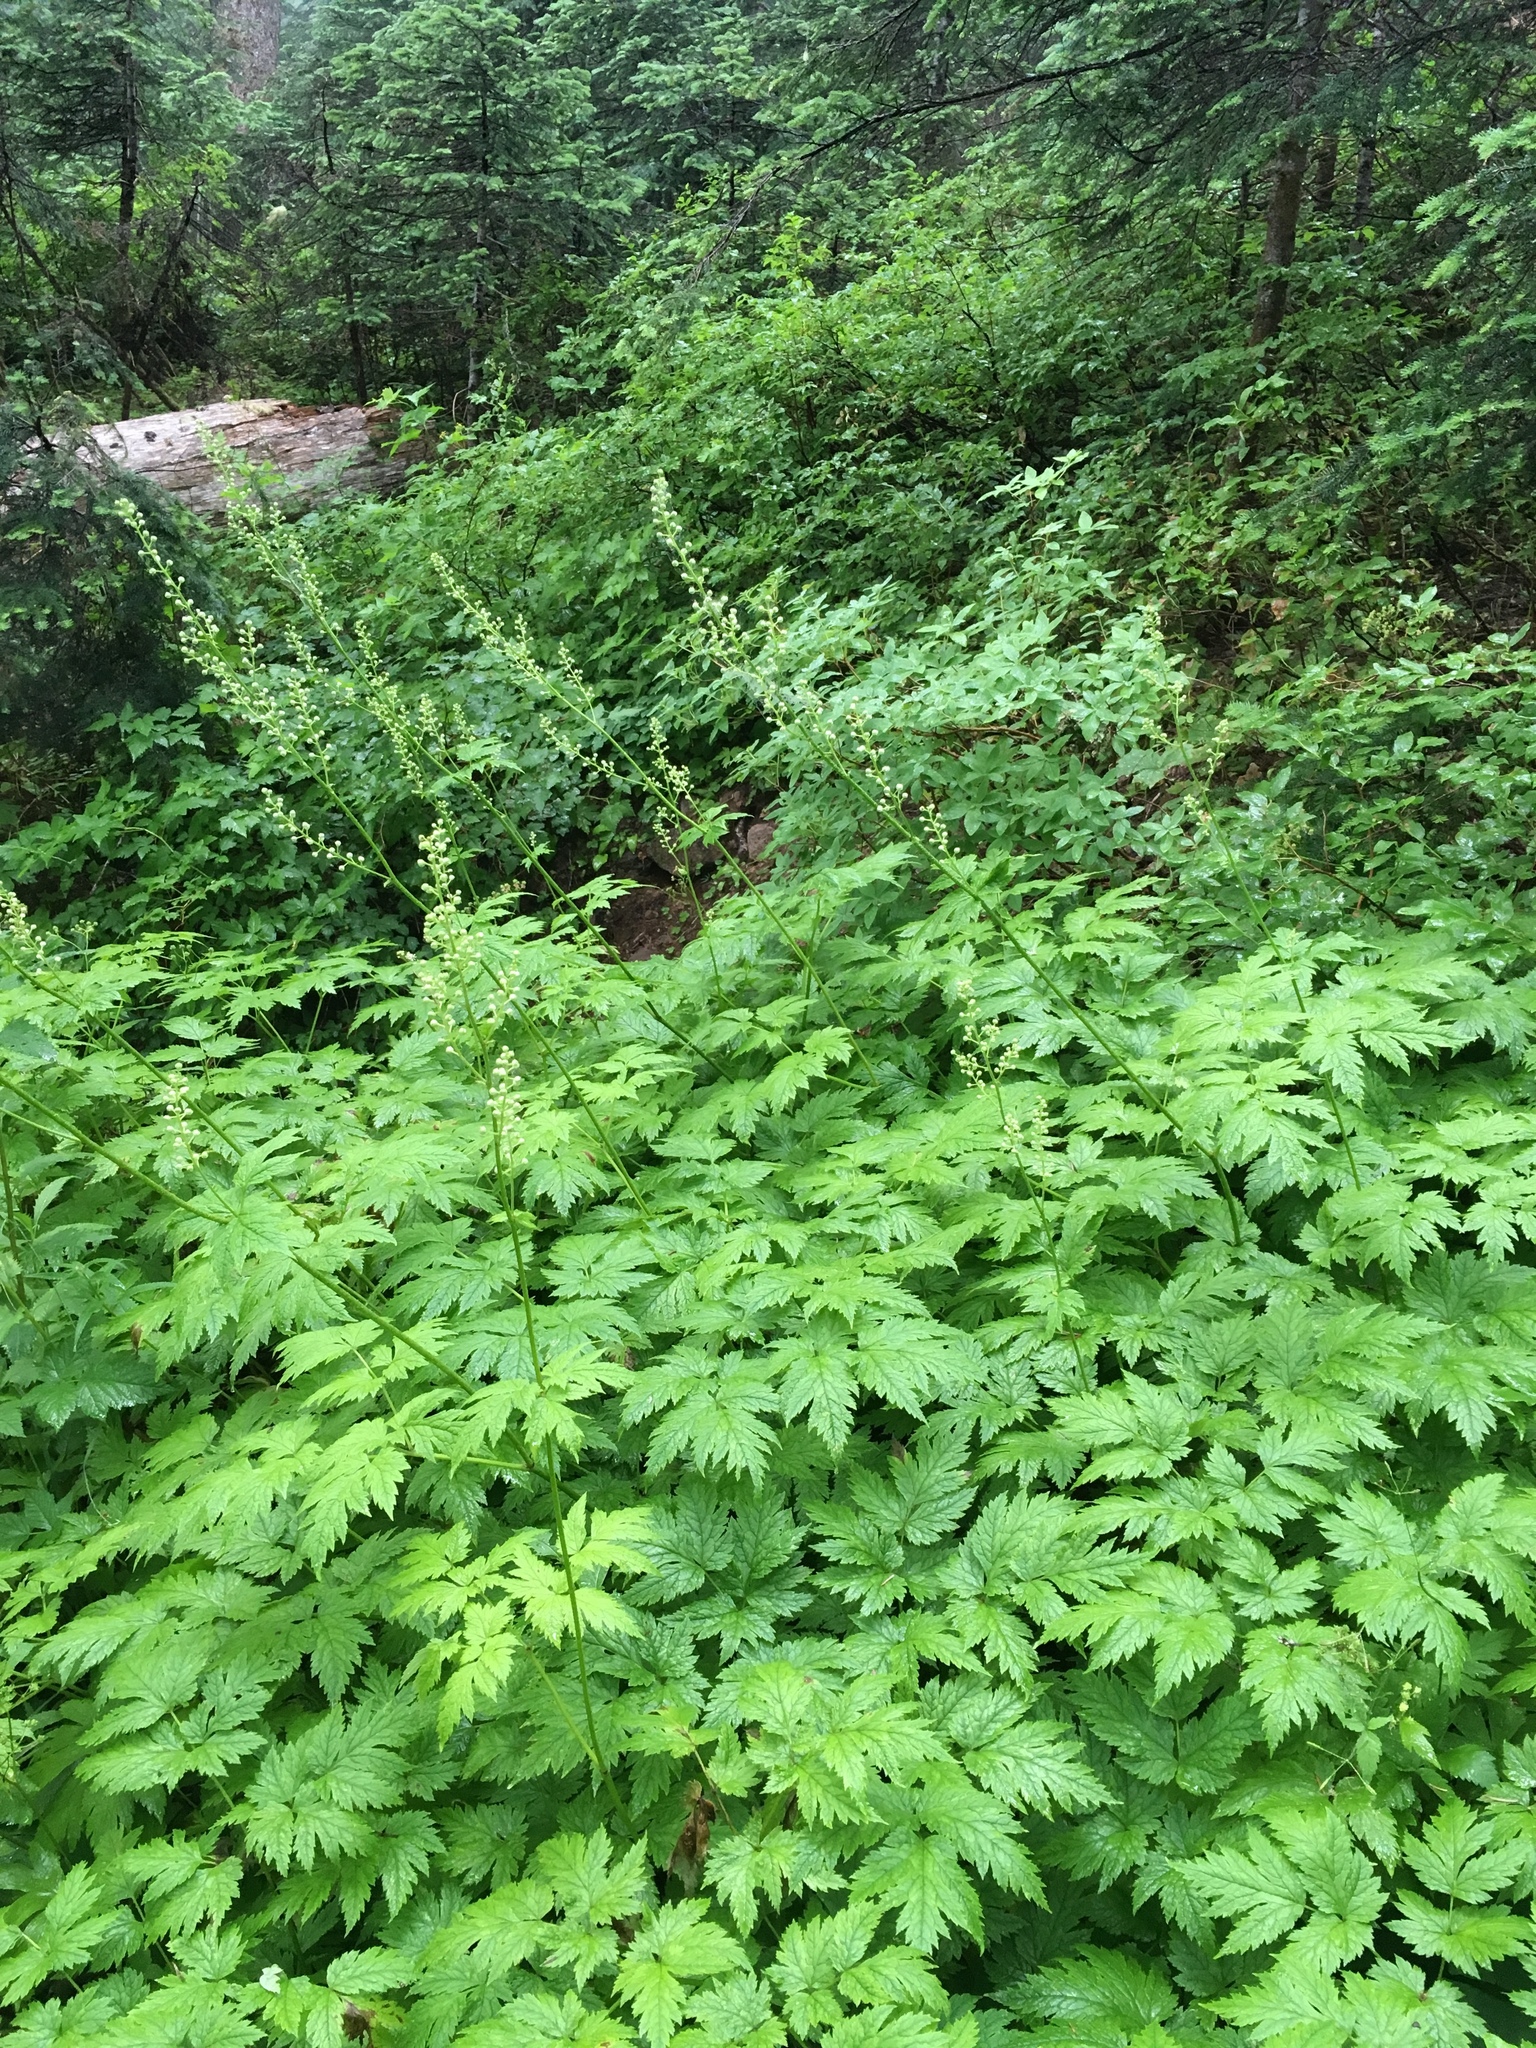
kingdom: Plantae
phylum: Tracheophyta
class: Magnoliopsida
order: Ranunculales
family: Ranunculaceae
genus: Actaea
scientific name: Actaea laciniata
